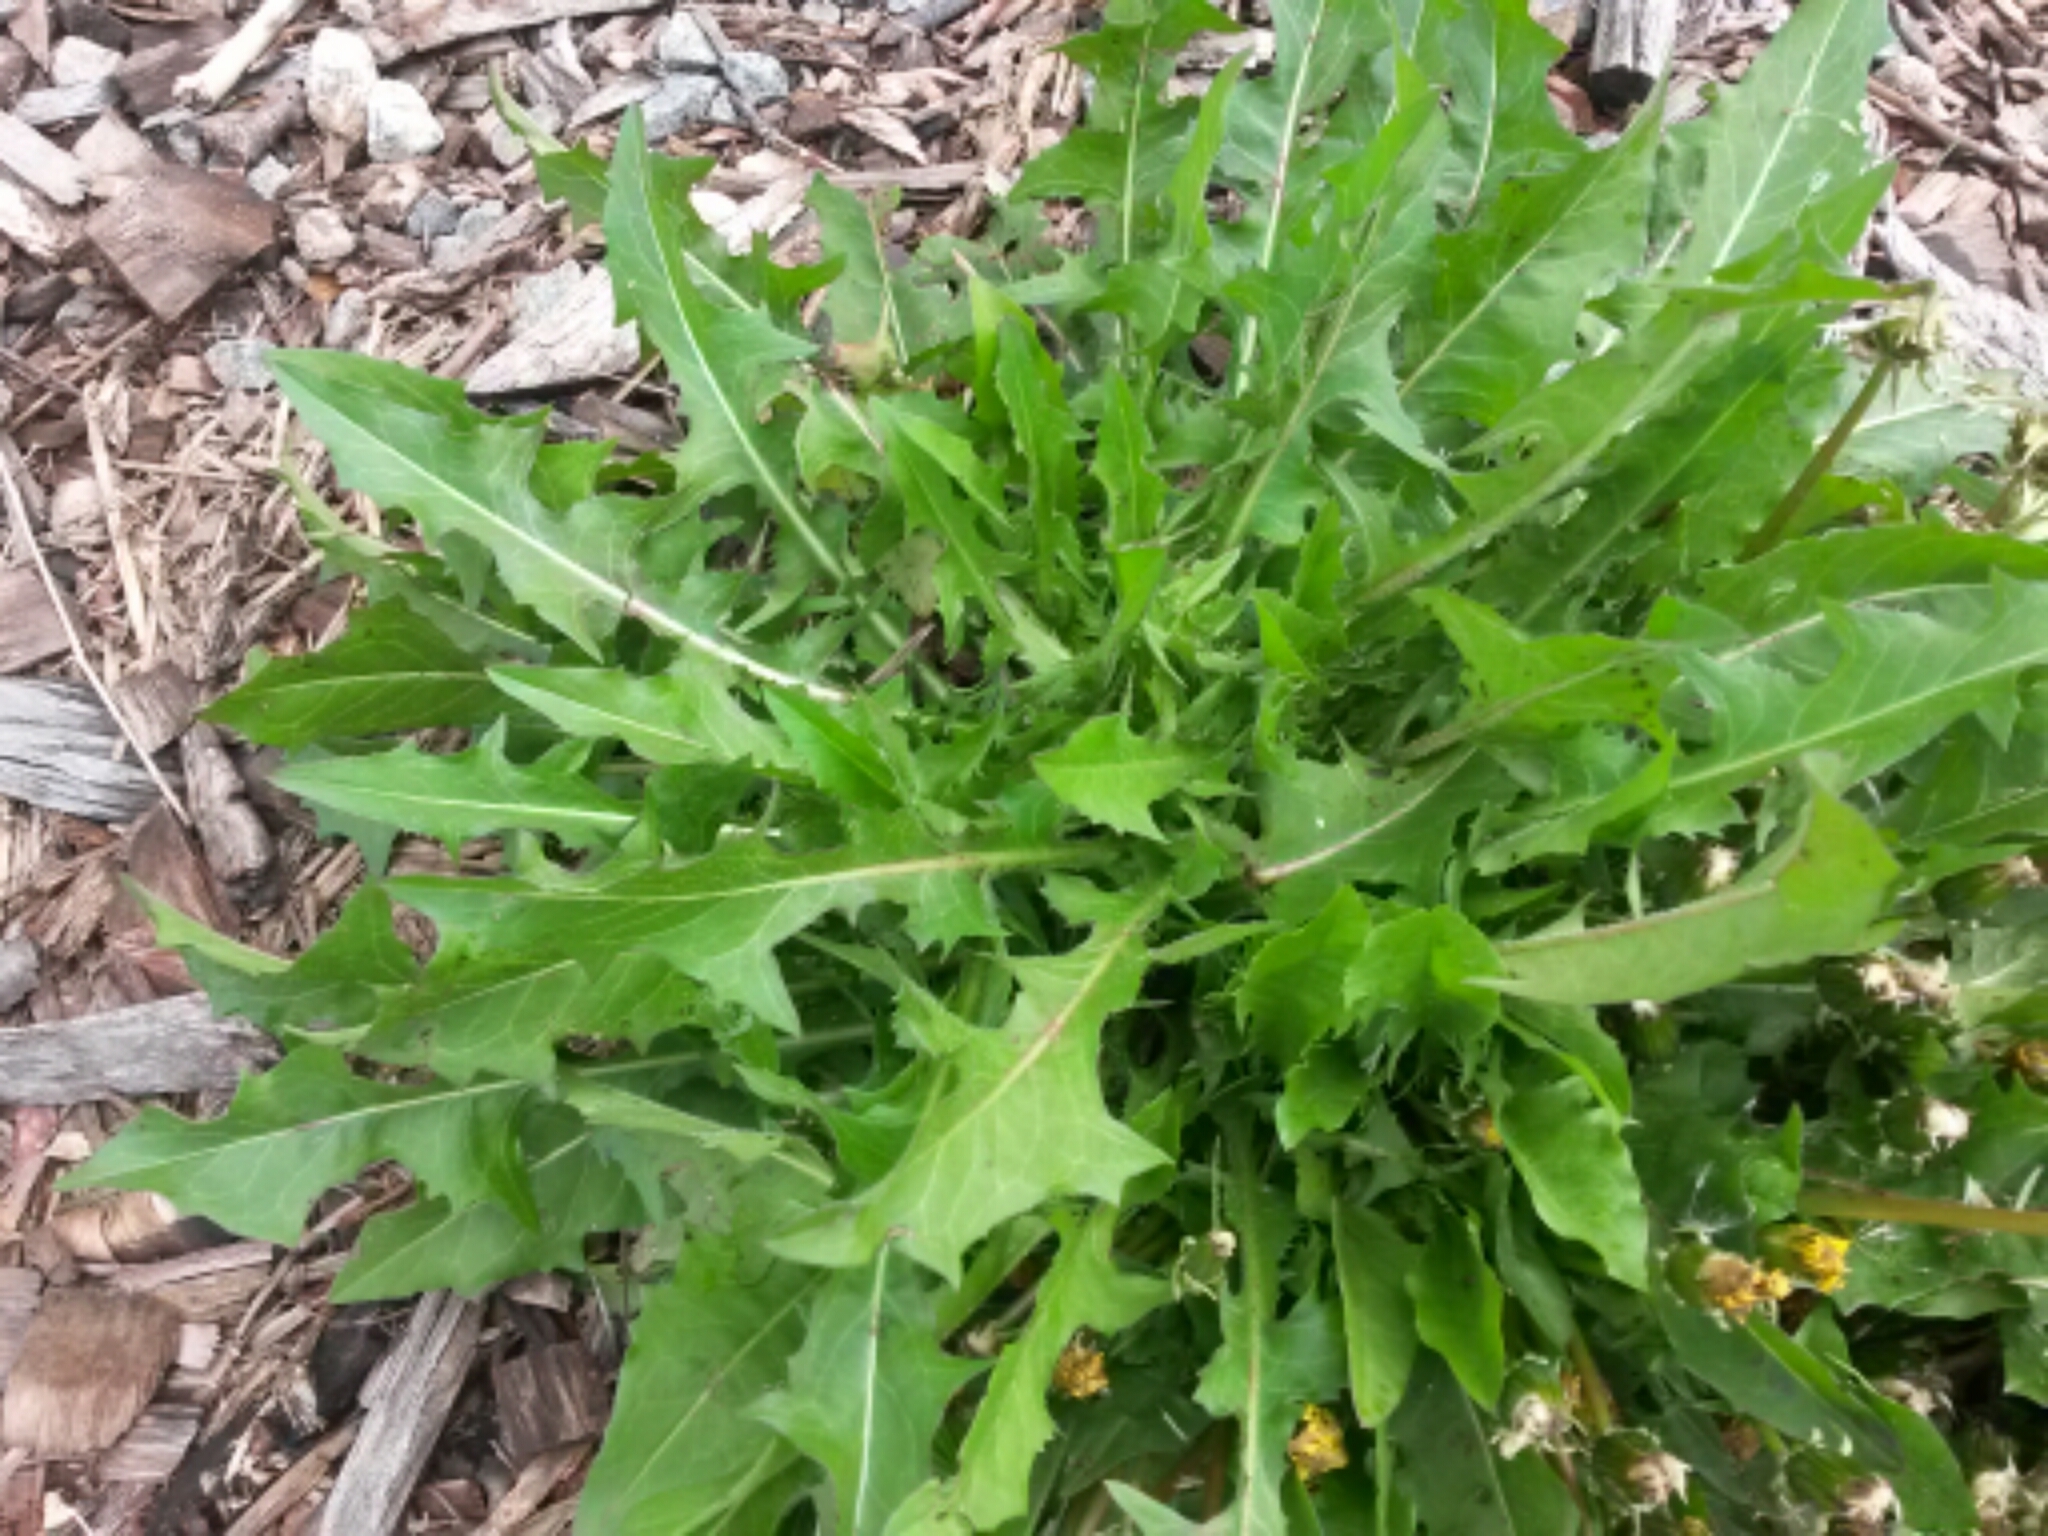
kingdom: Plantae
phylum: Tracheophyta
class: Magnoliopsida
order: Asterales
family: Asteraceae
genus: Taraxacum
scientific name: Taraxacum
